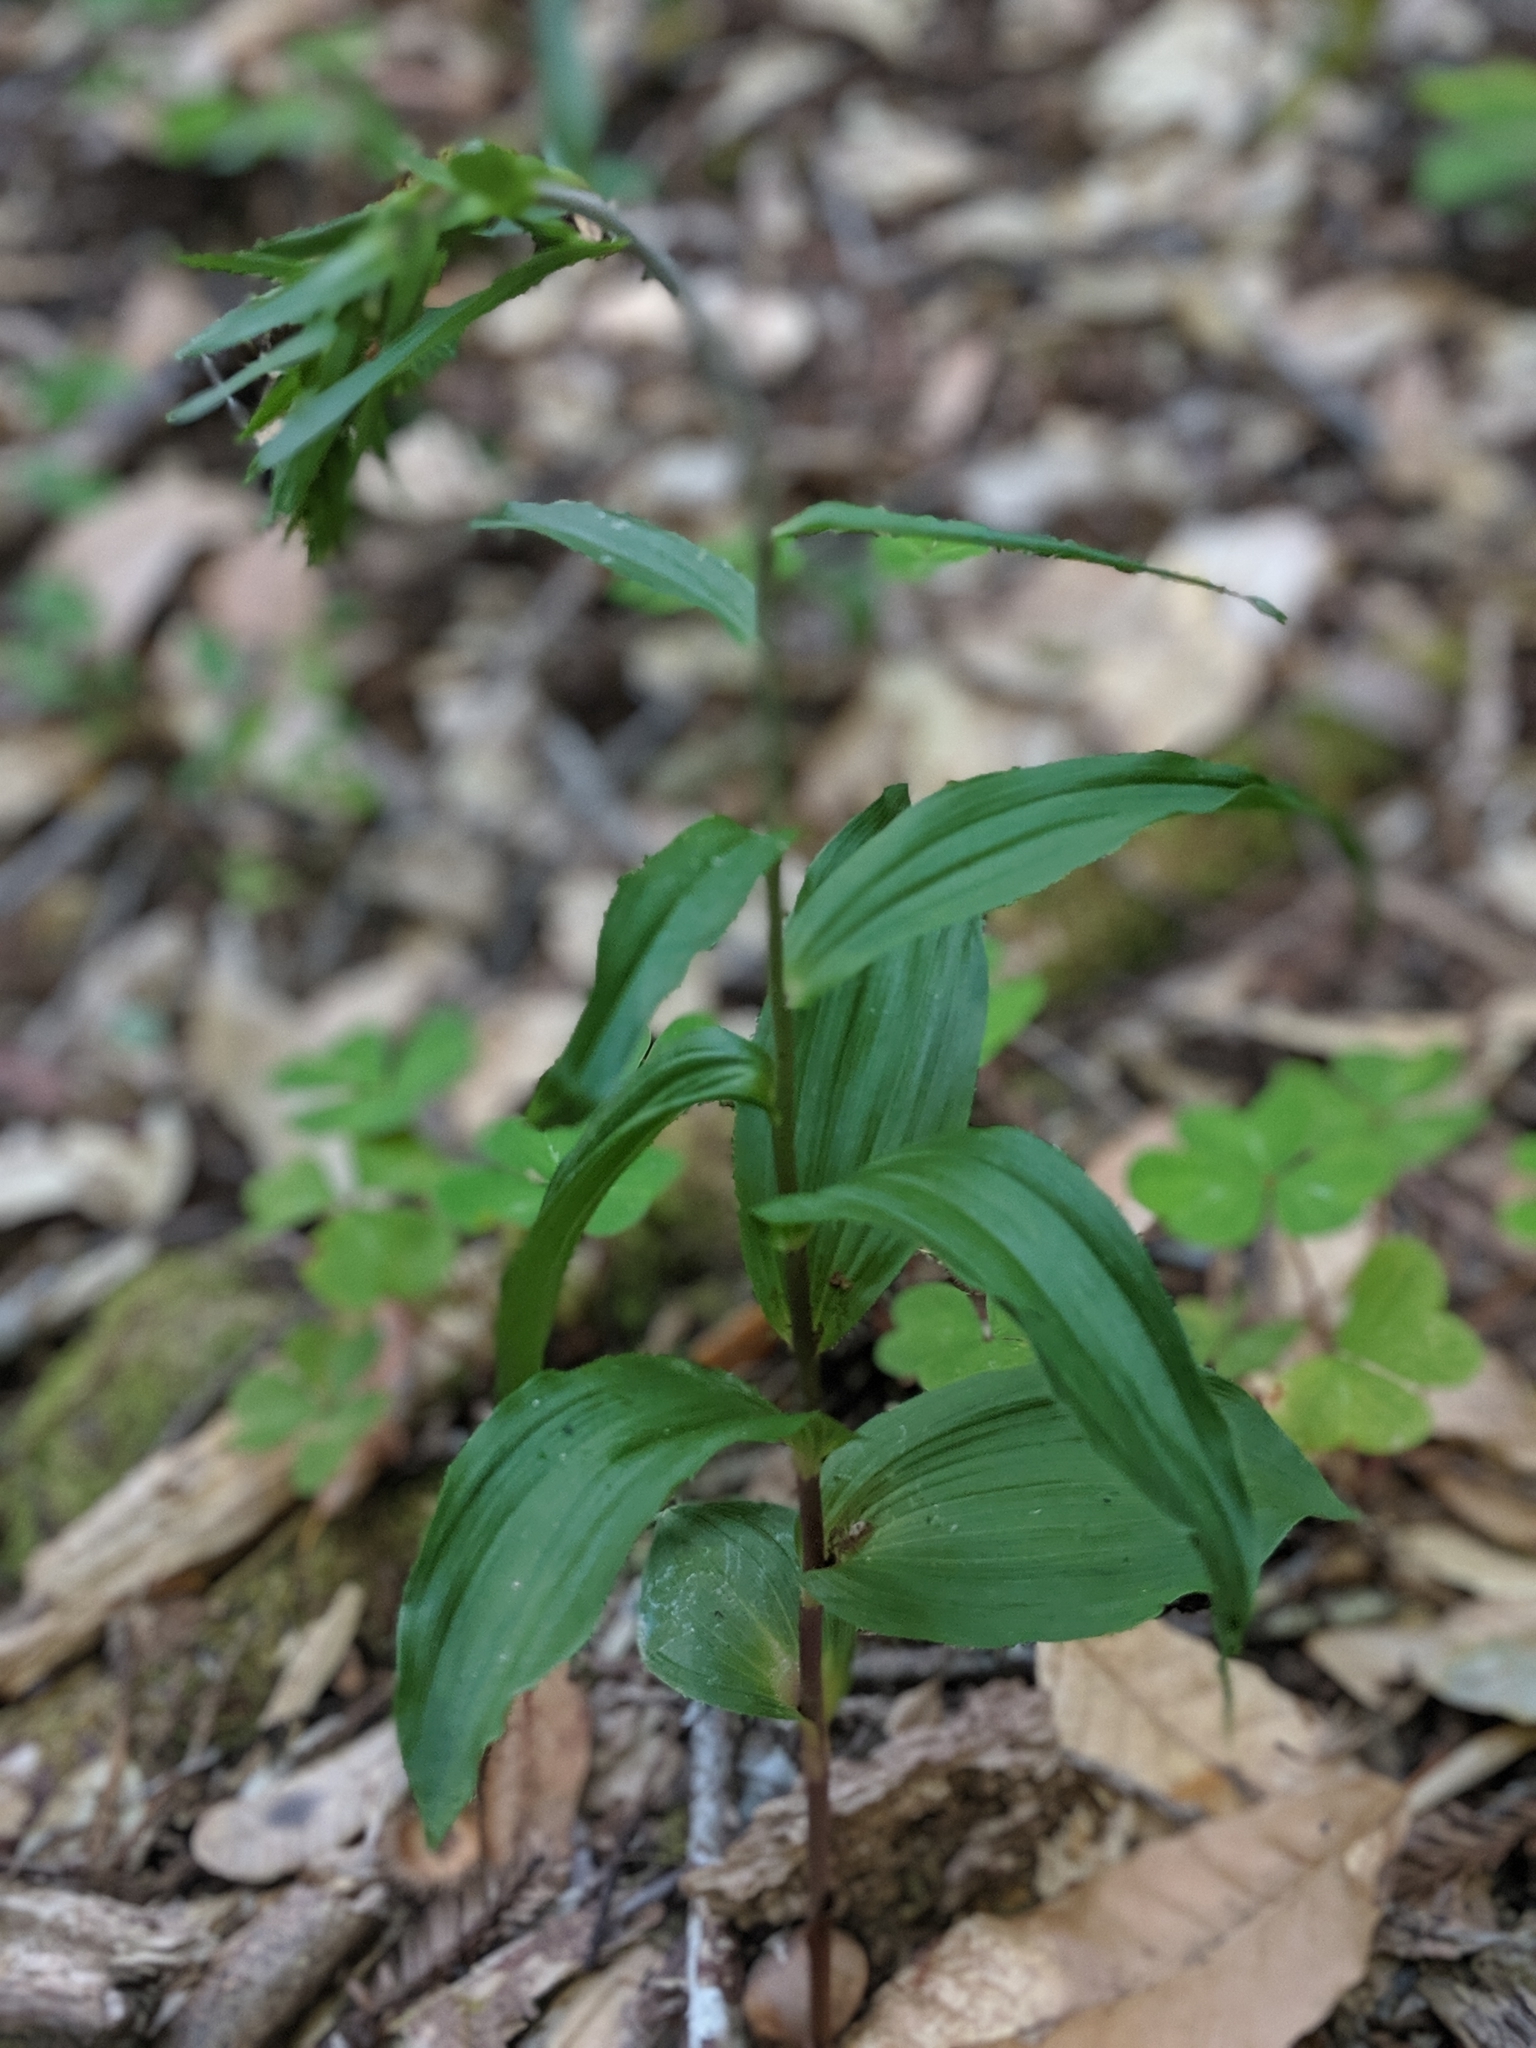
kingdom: Plantae
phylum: Tracheophyta
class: Liliopsida
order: Asparagales
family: Orchidaceae
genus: Epipactis
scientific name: Epipactis helleborine
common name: Broad-leaved helleborine
